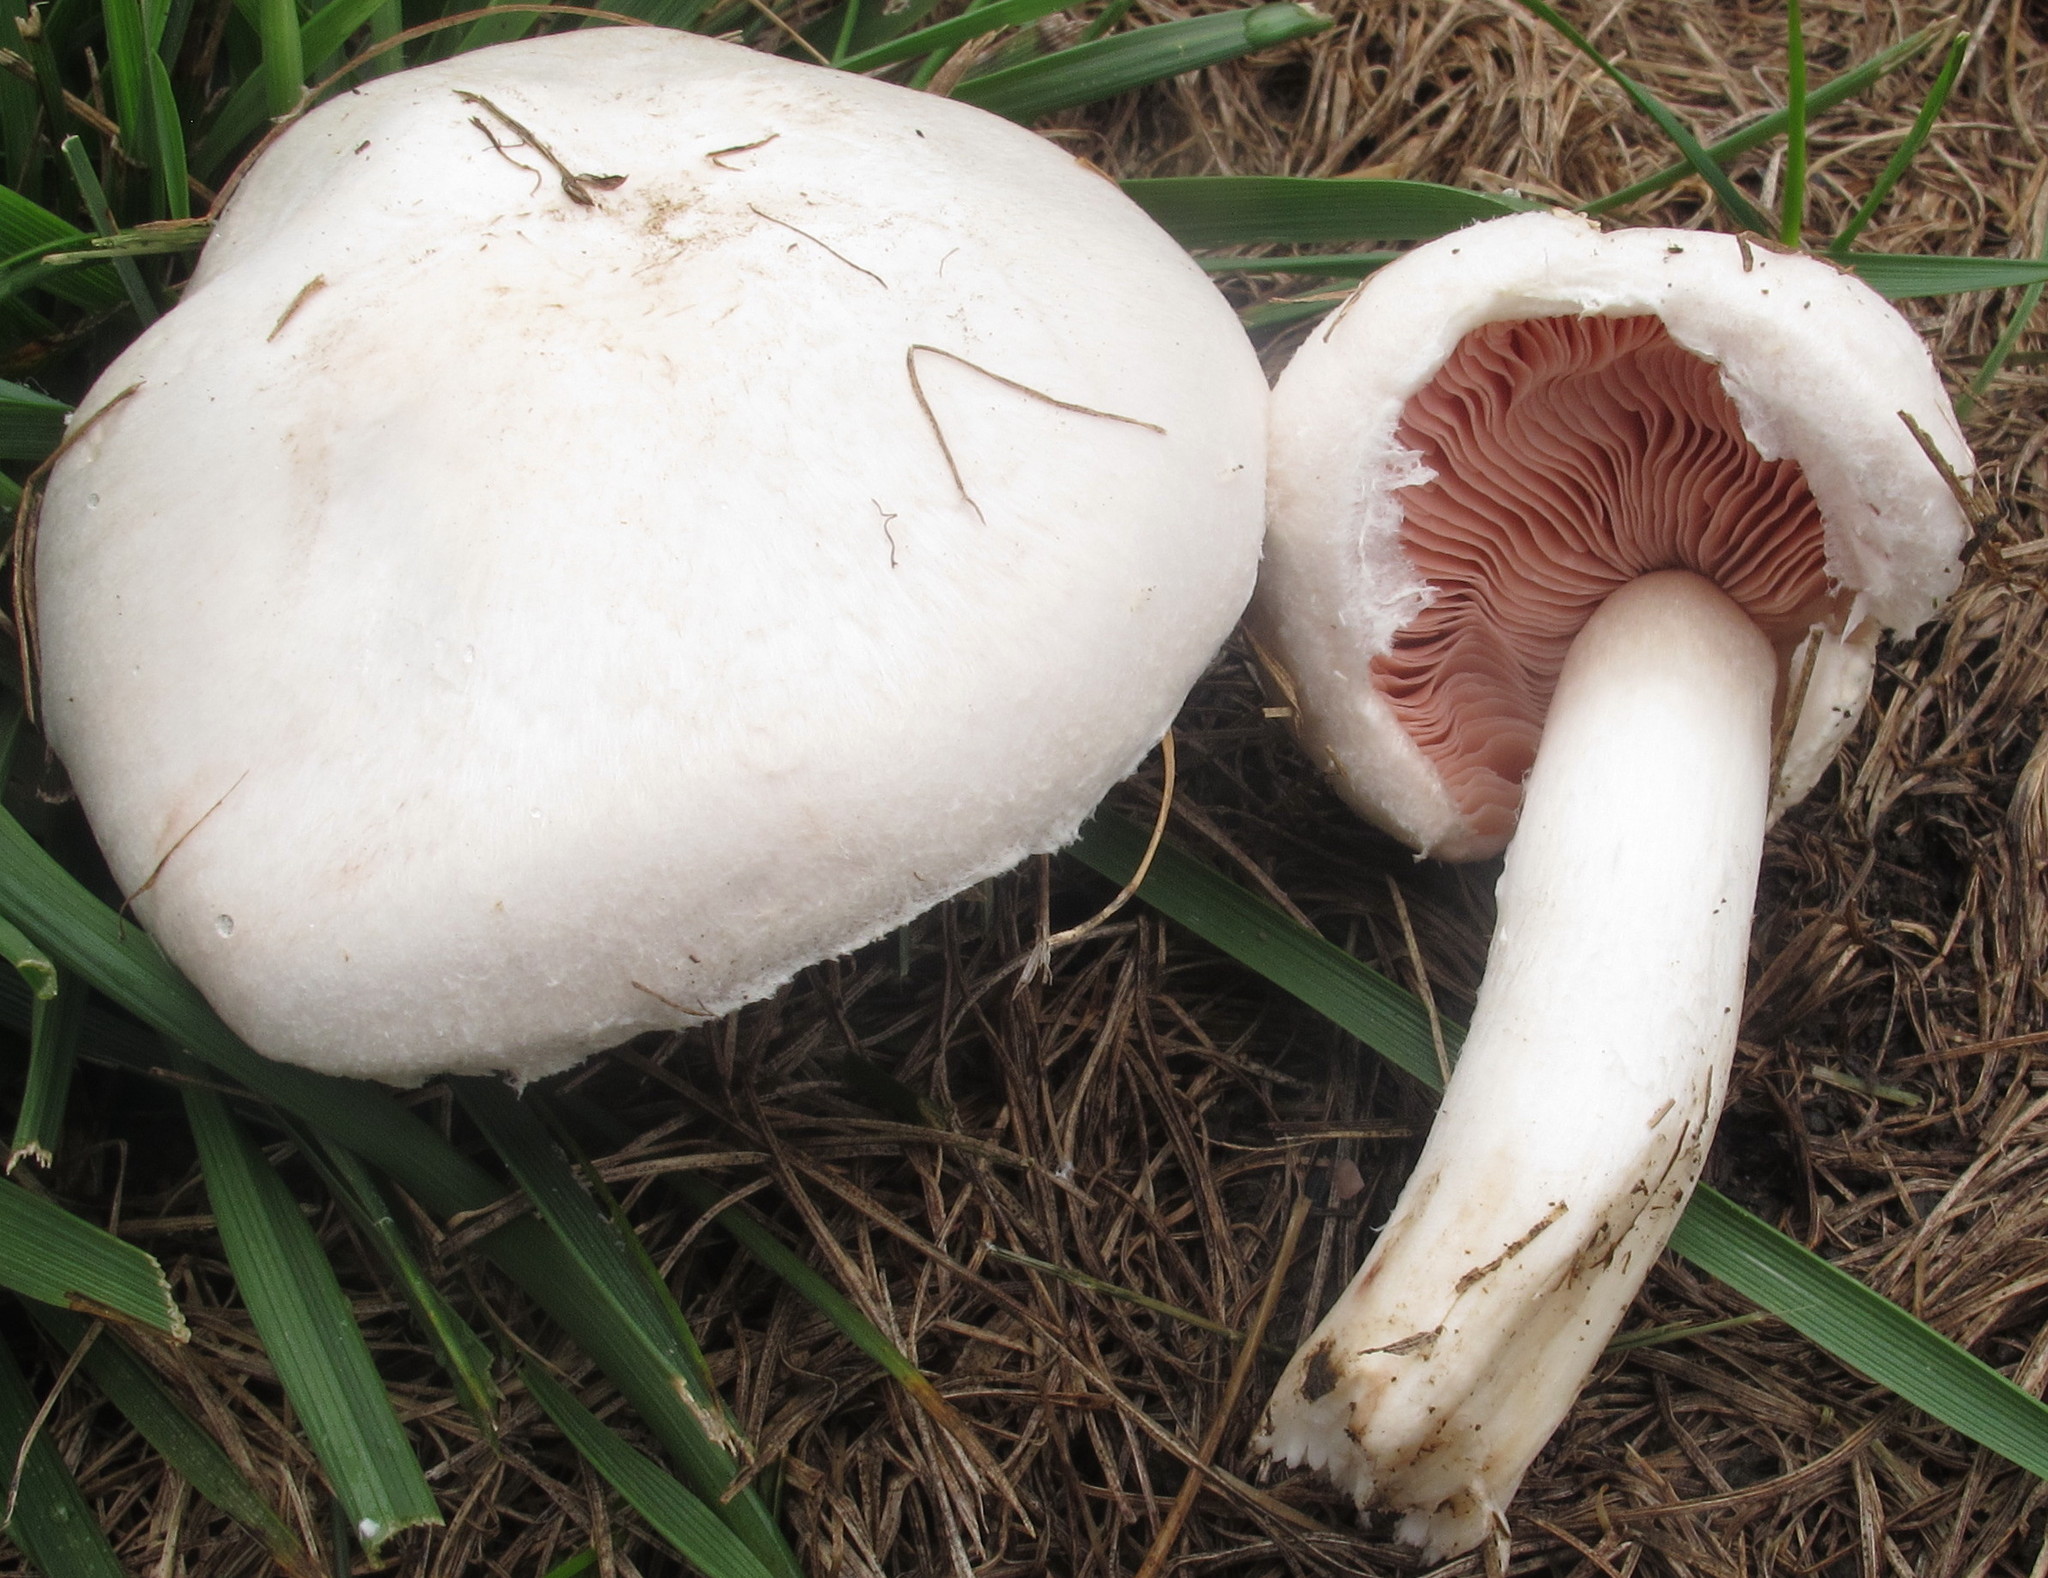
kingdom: Fungi
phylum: Basidiomycota
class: Agaricomycetes
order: Agaricales
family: Agaricaceae
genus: Agaricus
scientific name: Agaricus campestris
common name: Field mushroom
